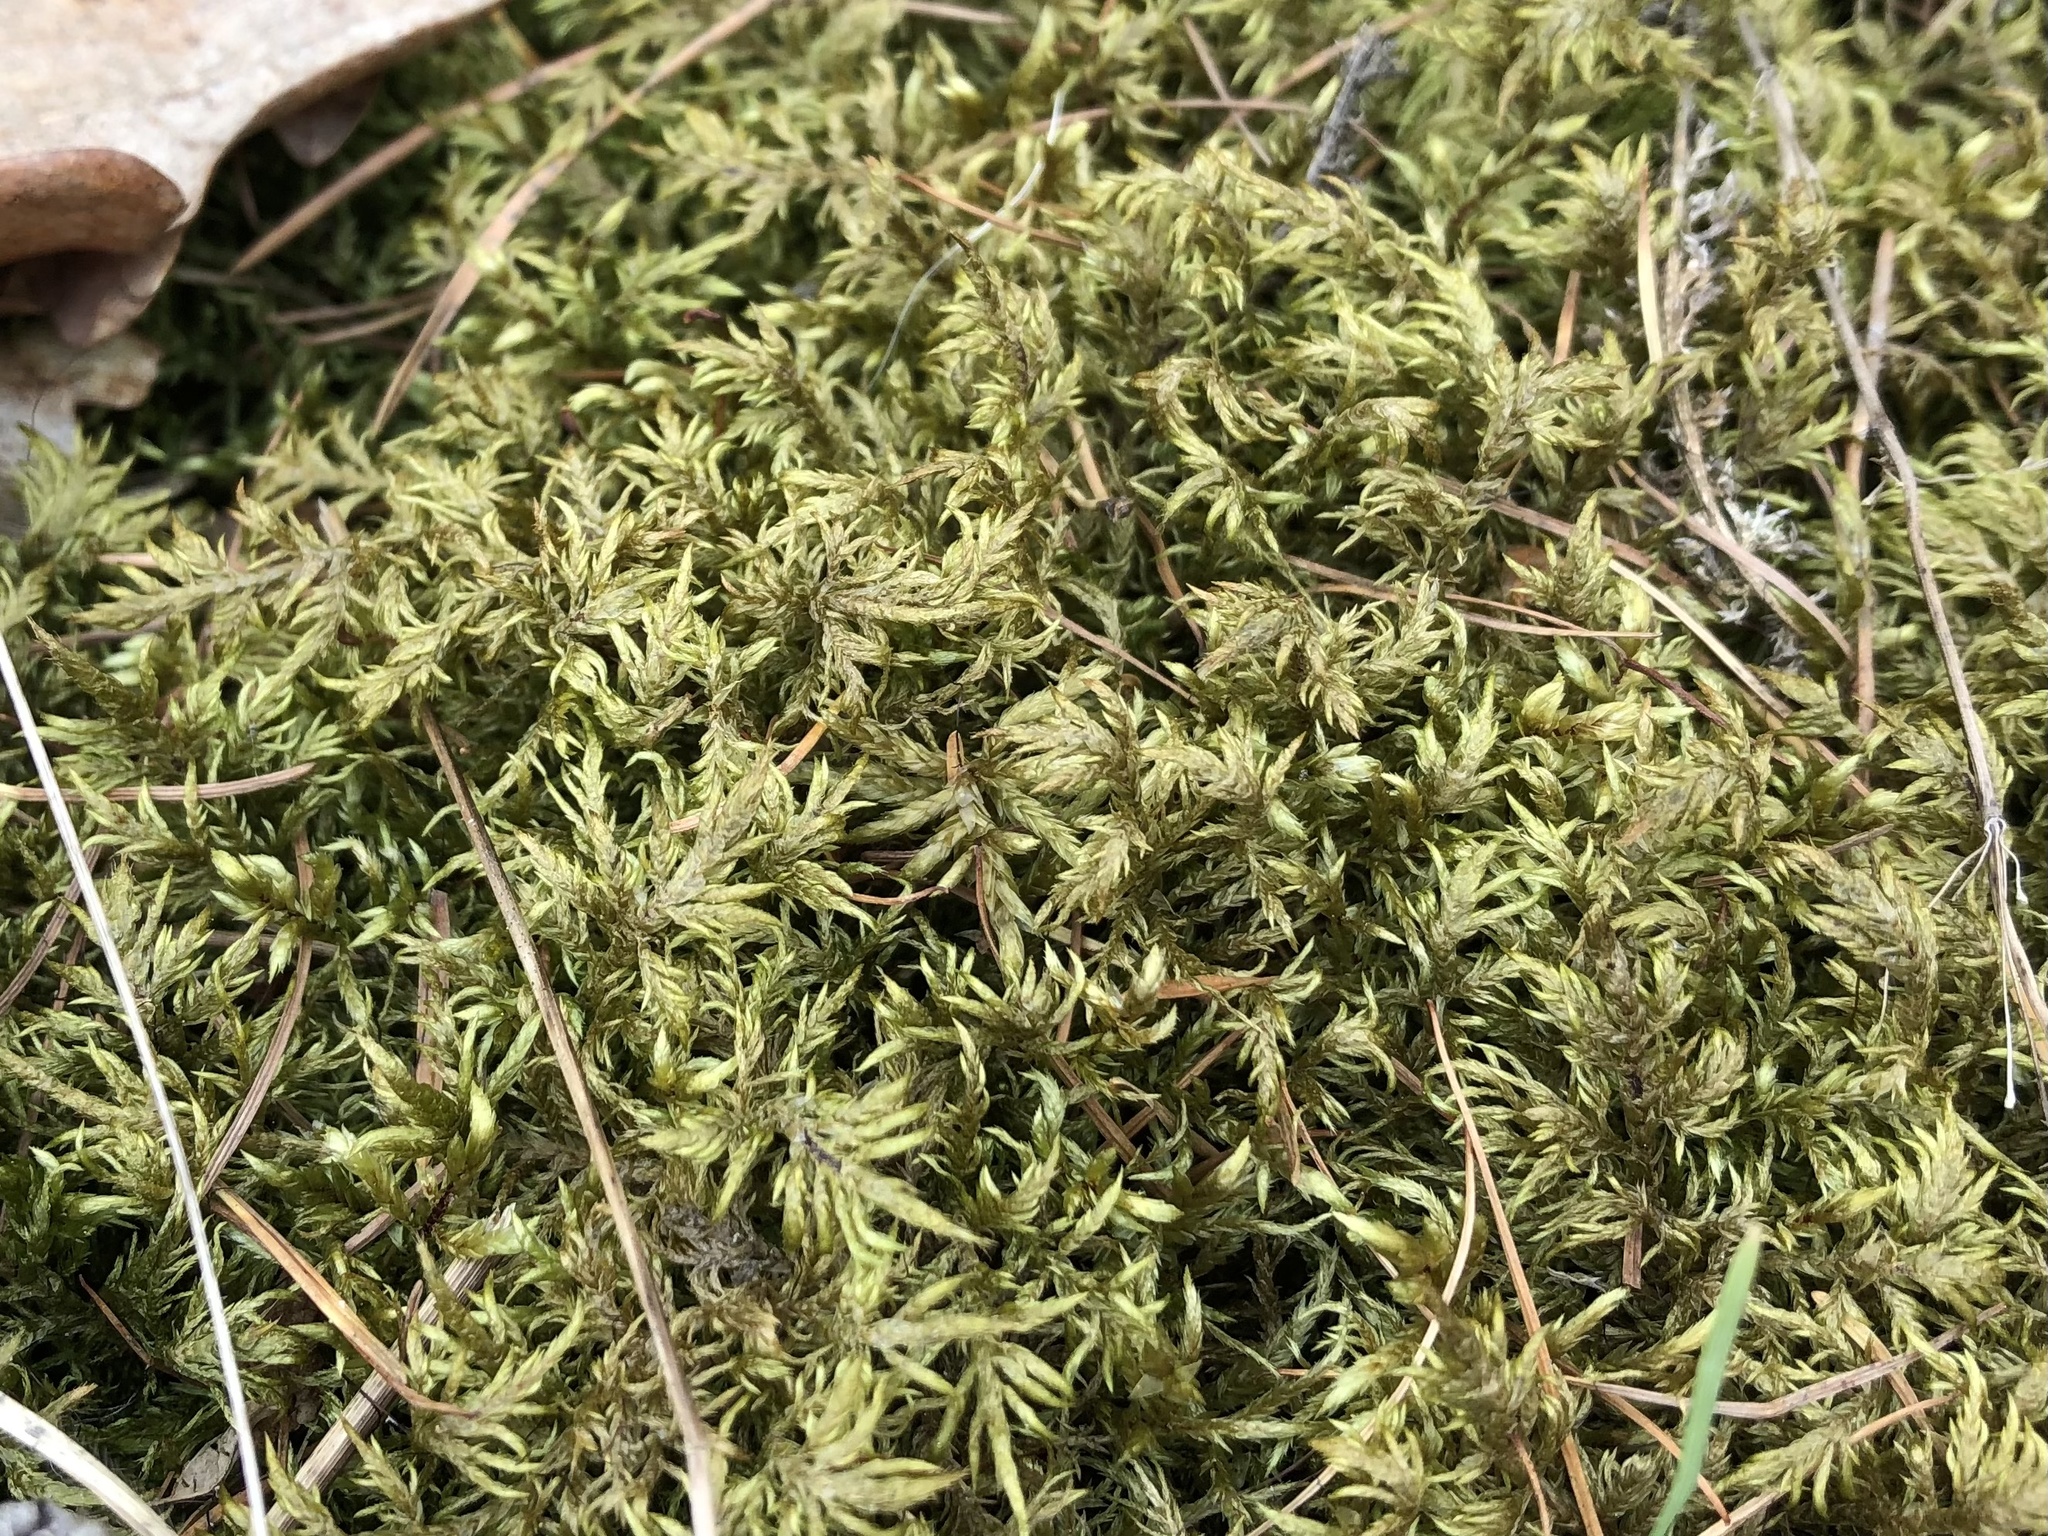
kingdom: Plantae
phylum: Bryophyta
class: Bryopsida
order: Hypnales
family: Hylocomiaceae
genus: Hylocomium
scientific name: Hylocomium splendens
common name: Stairstep moss
